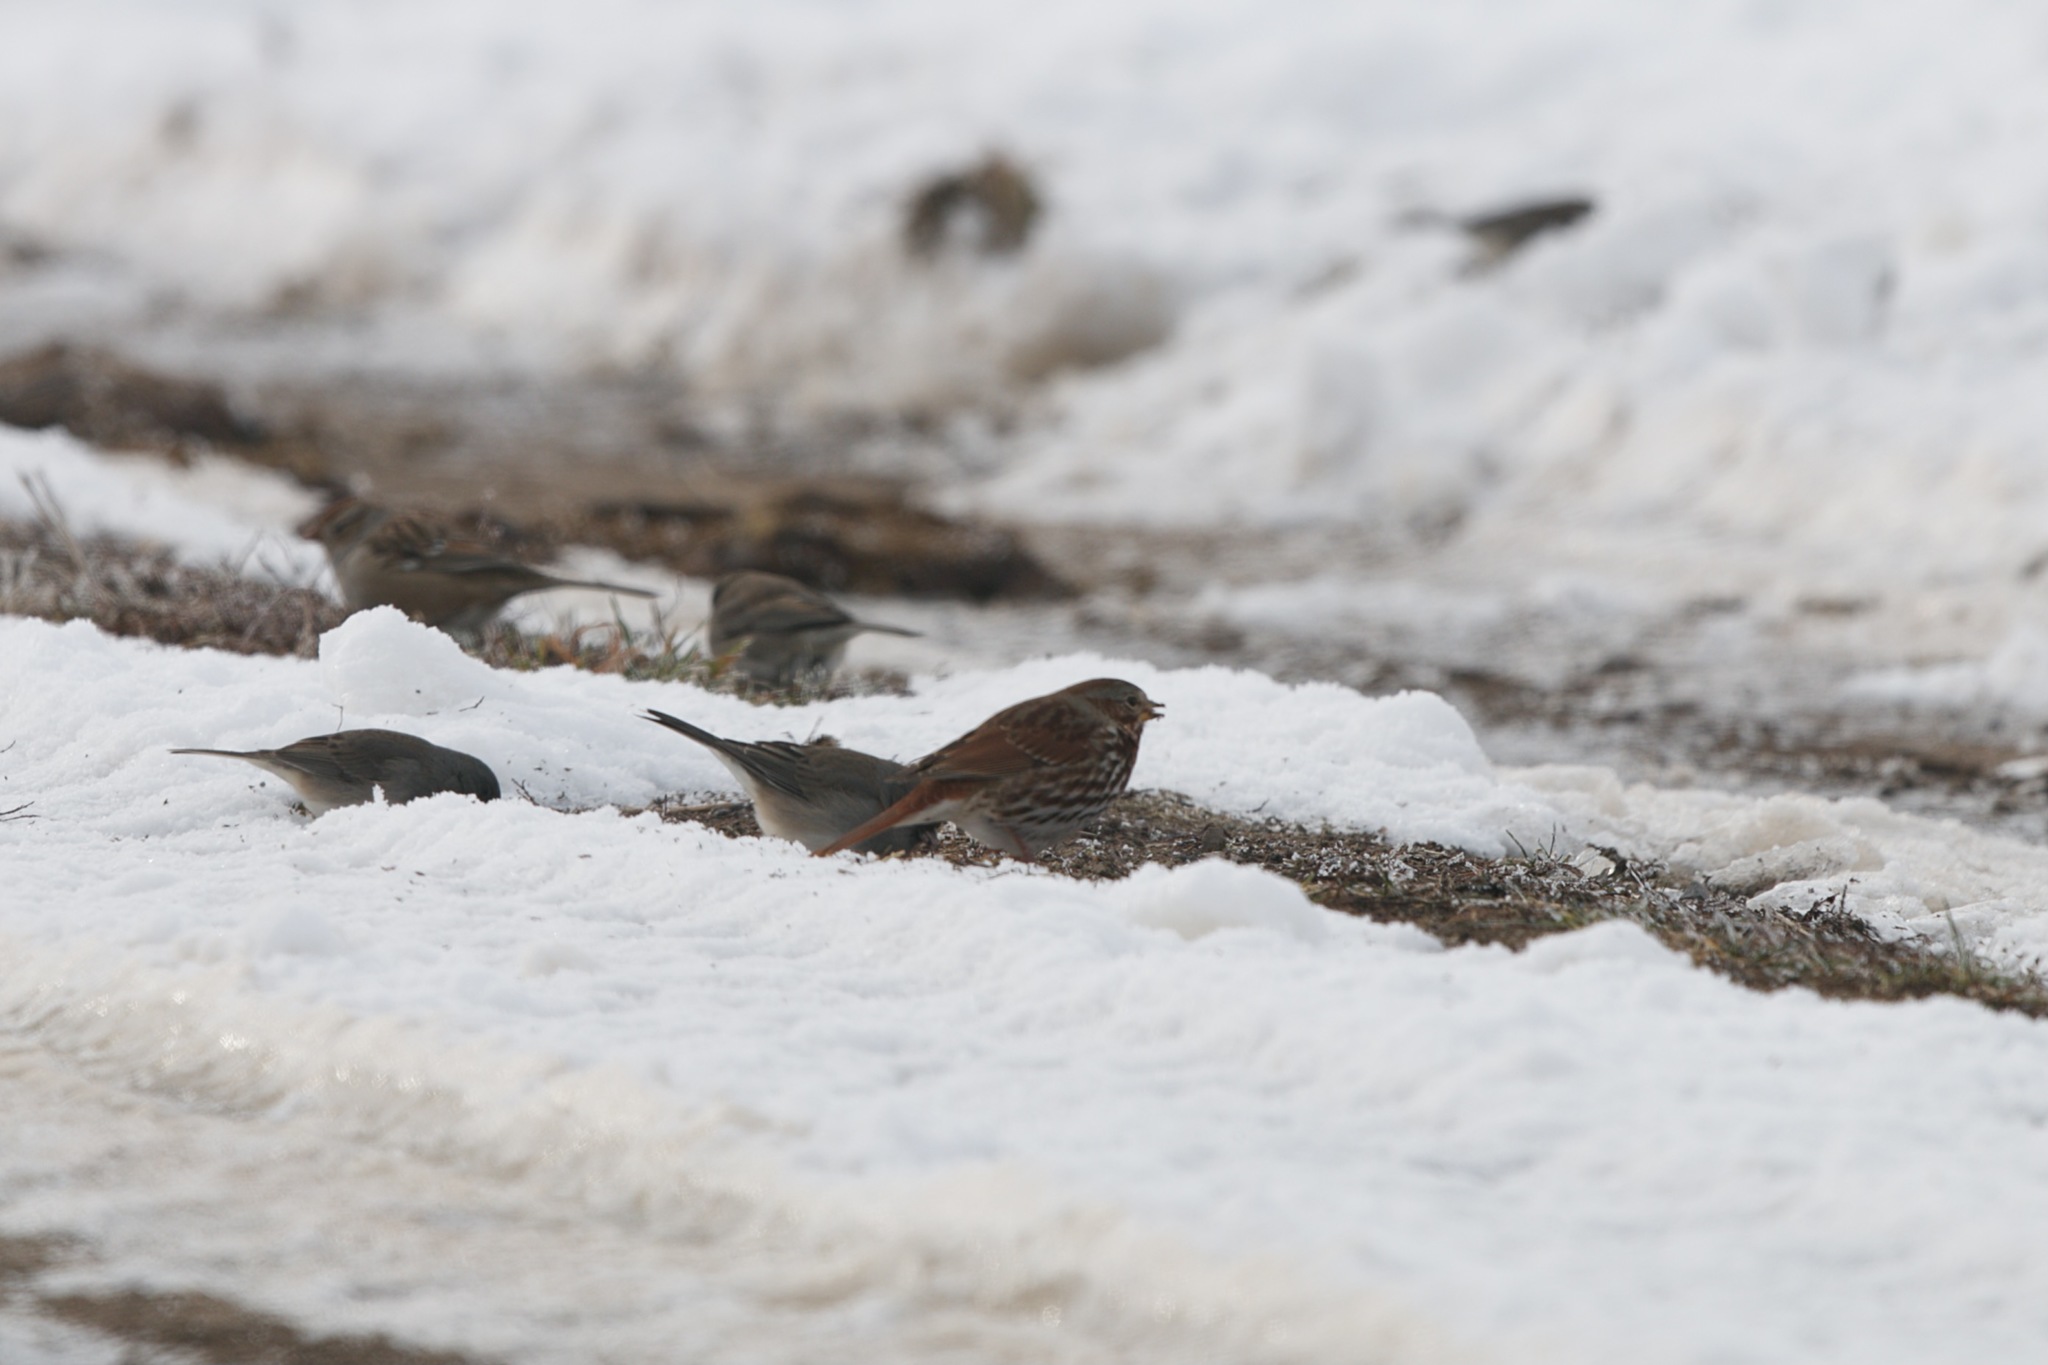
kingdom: Animalia
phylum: Chordata
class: Aves
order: Passeriformes
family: Passerellidae
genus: Junco
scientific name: Junco hyemalis
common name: Dark-eyed junco
